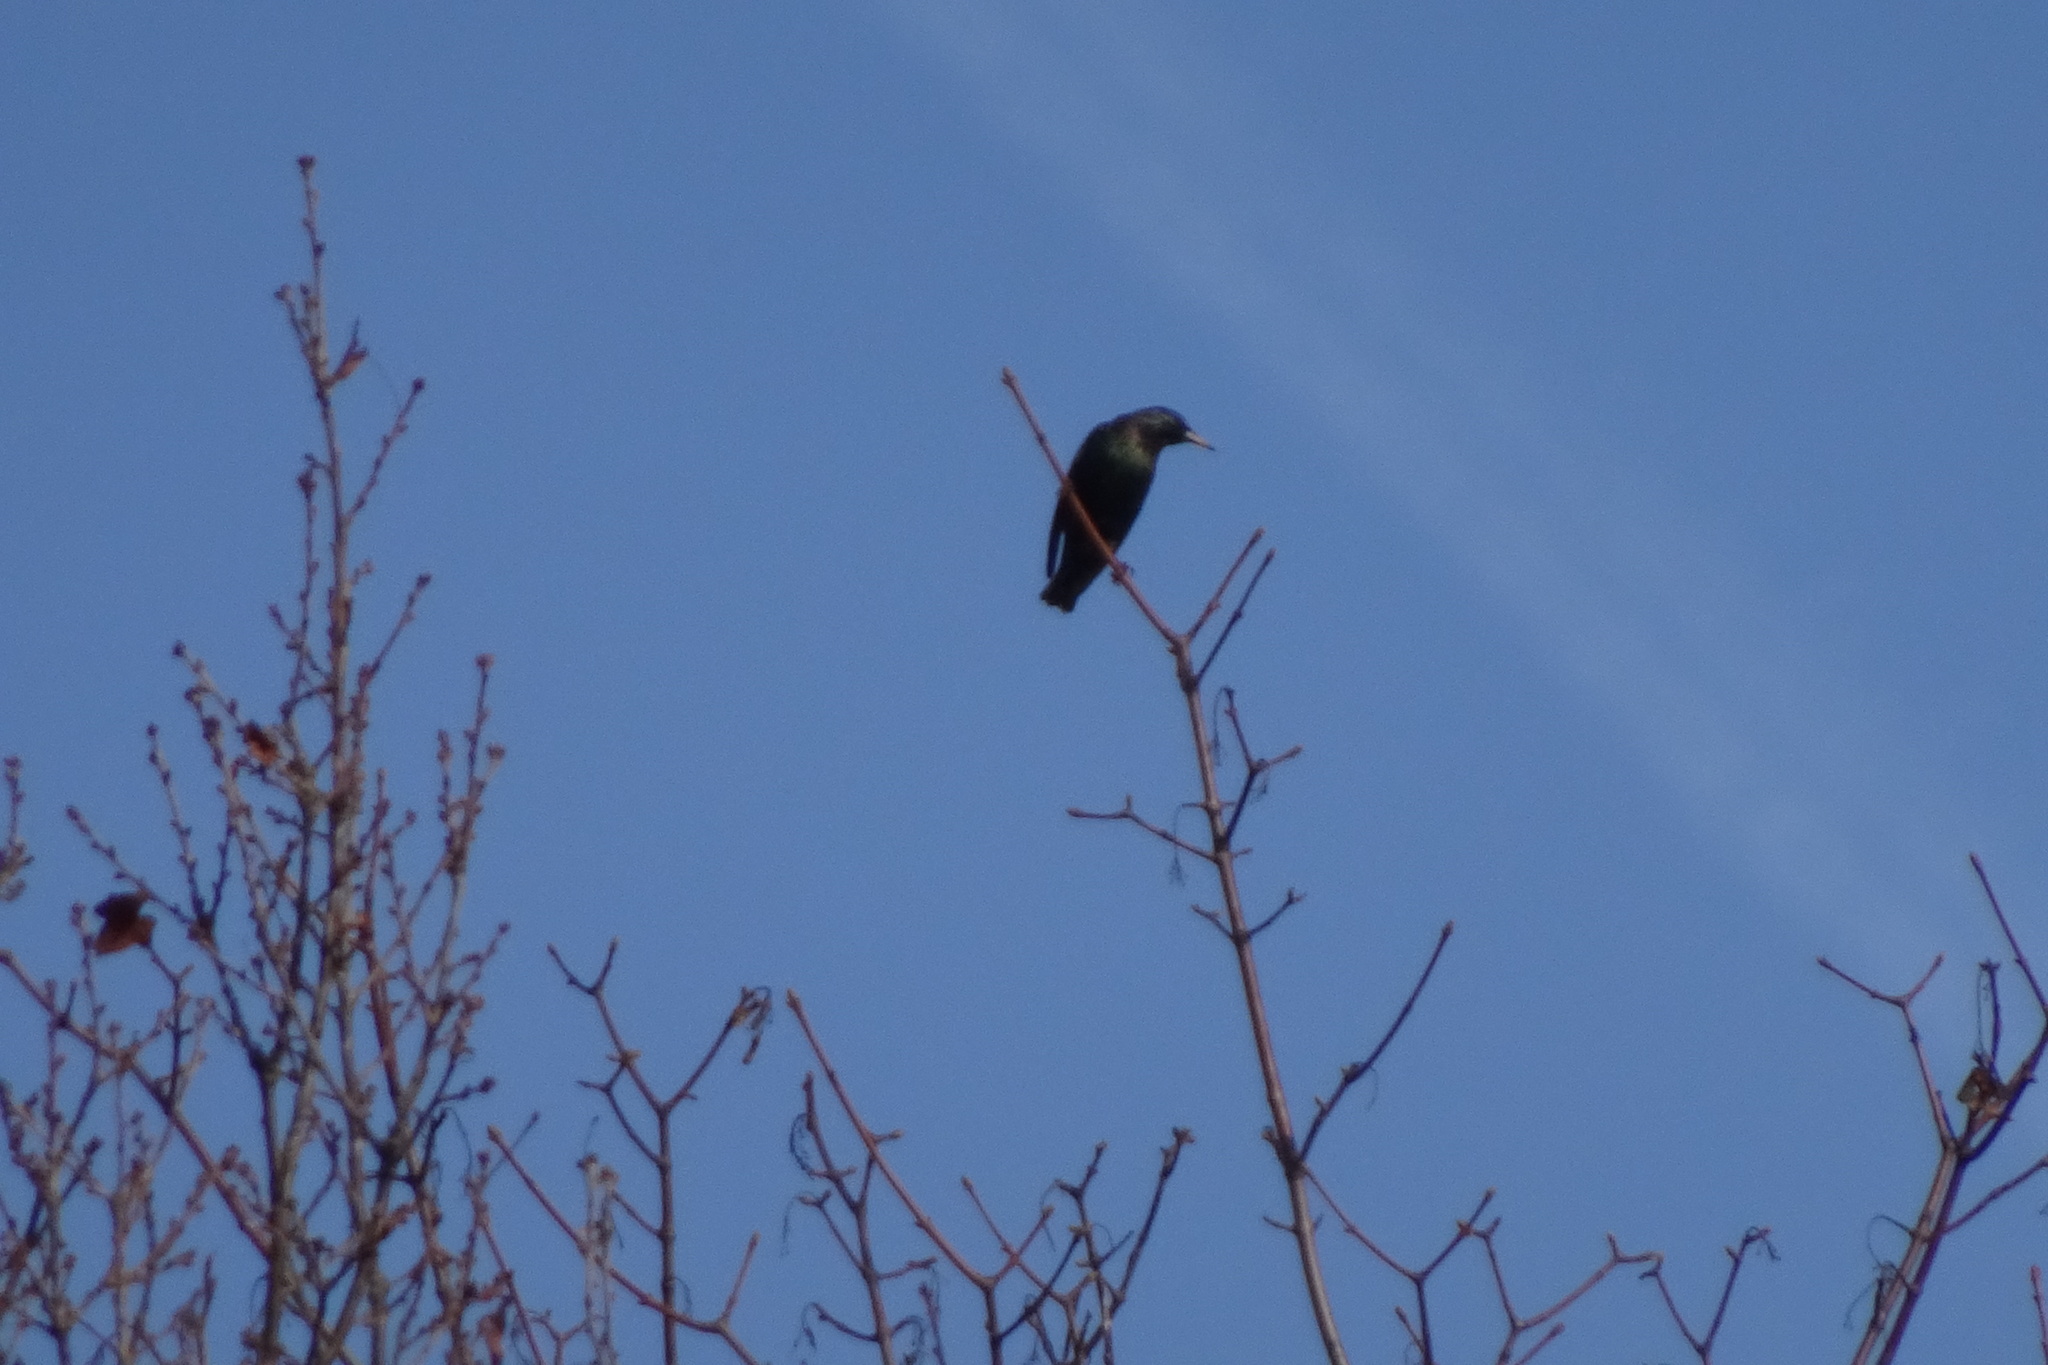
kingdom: Animalia
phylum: Chordata
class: Aves
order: Passeriformes
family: Sturnidae
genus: Sturnus
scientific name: Sturnus vulgaris
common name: Common starling
